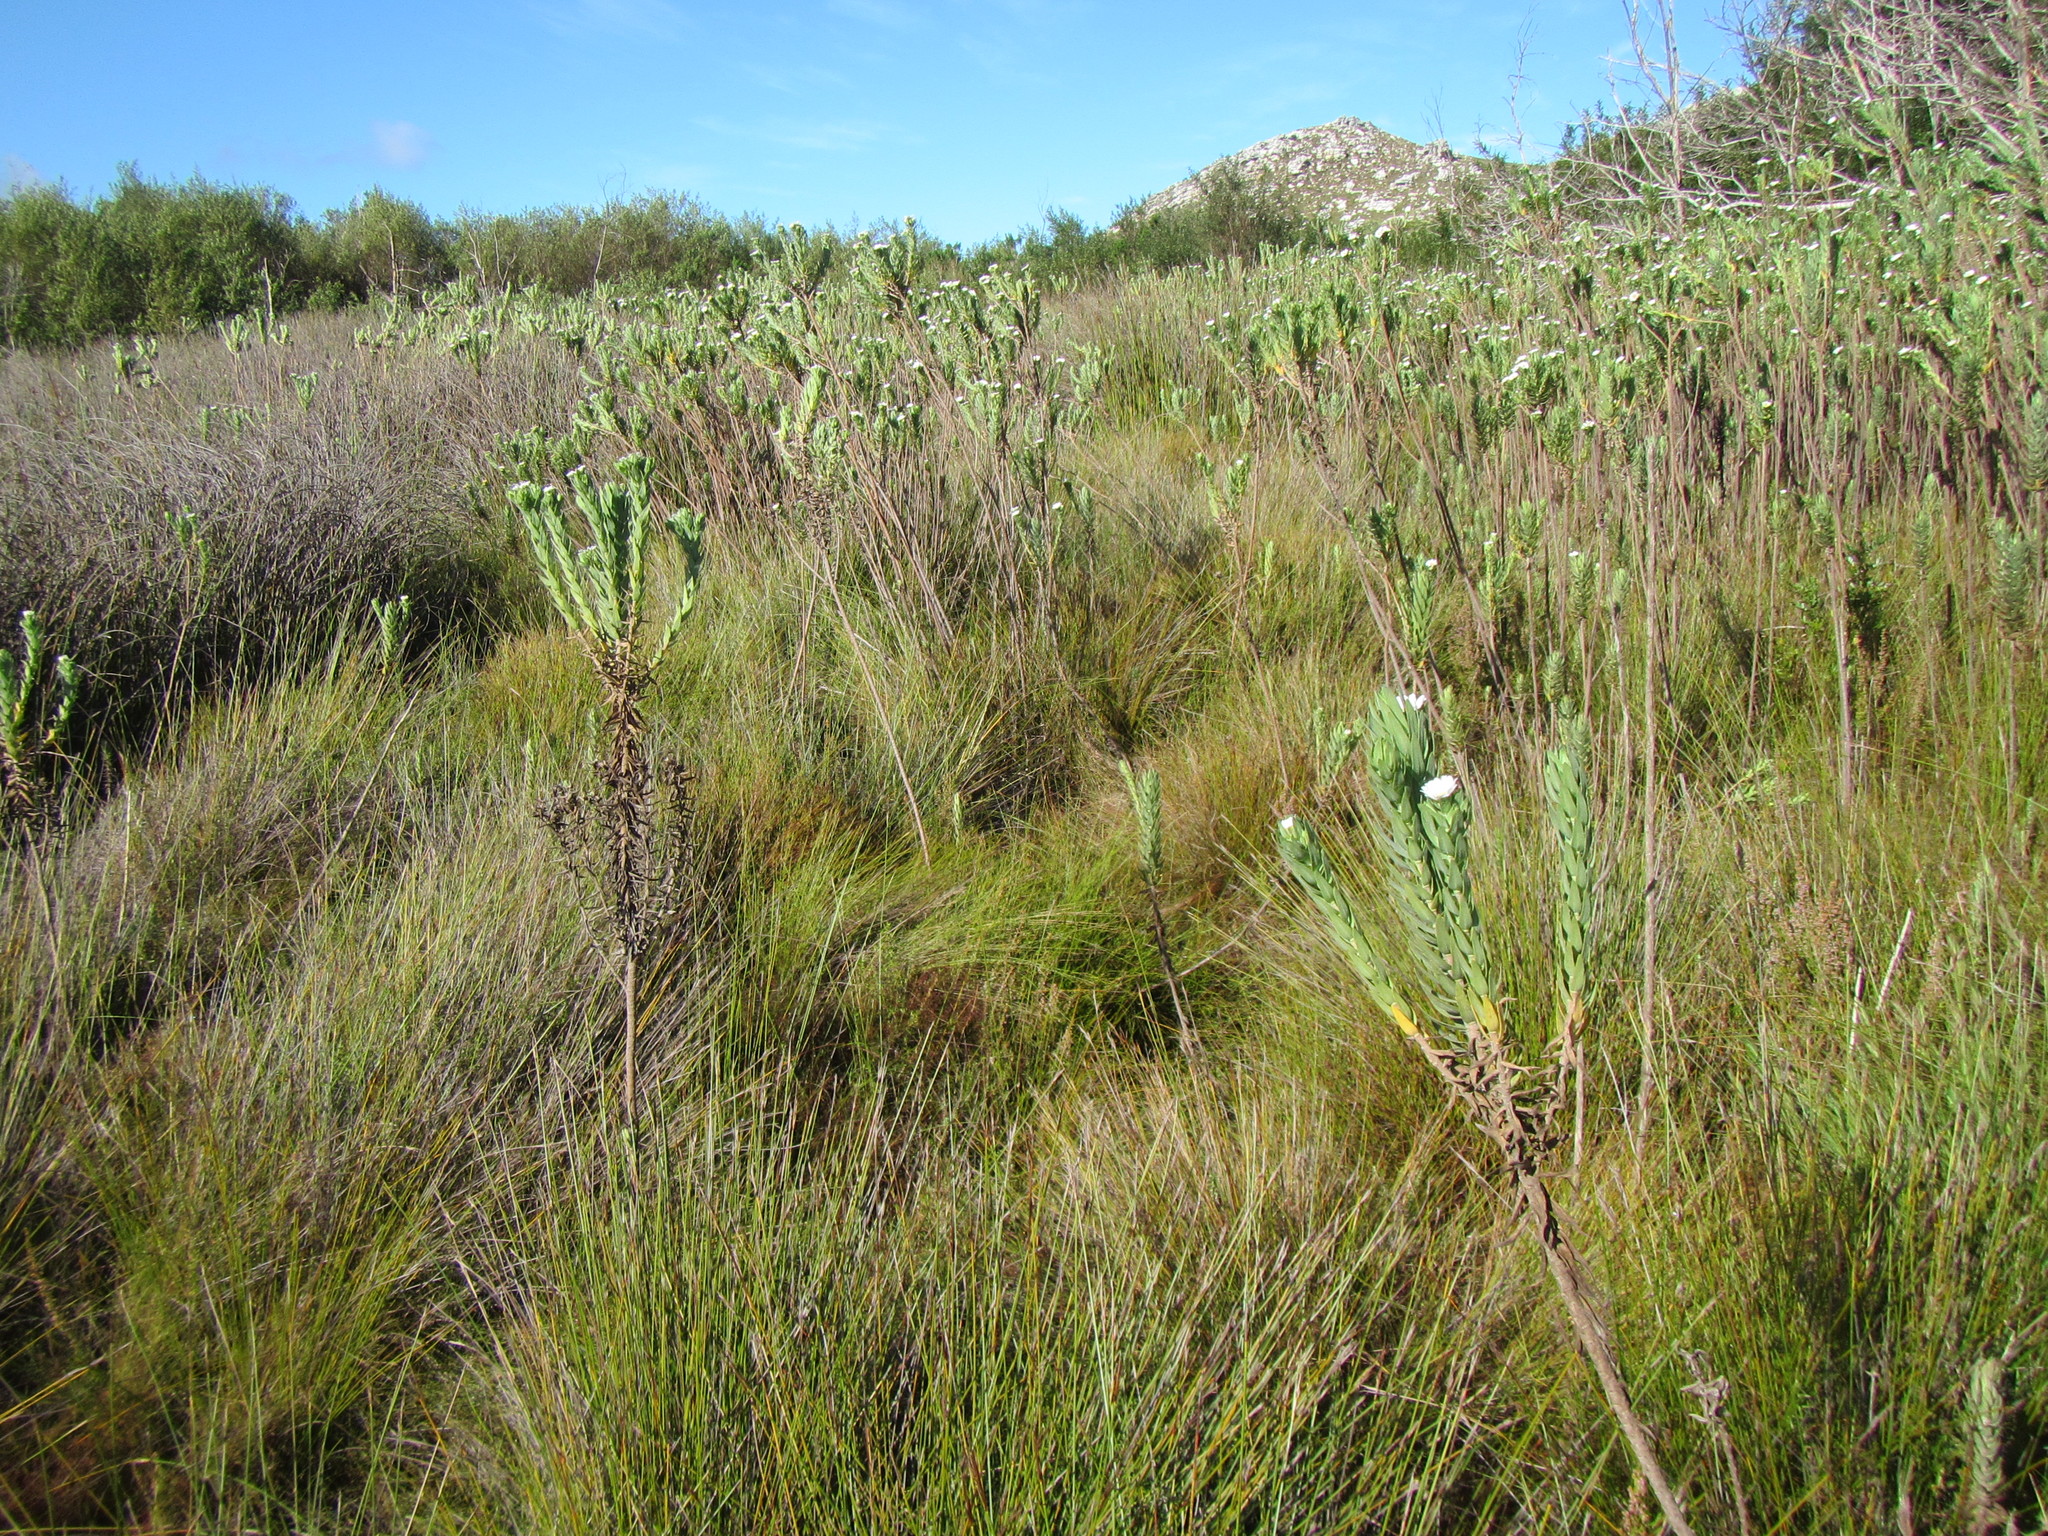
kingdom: Plantae
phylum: Tracheophyta
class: Liliopsida
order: Poales
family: Restionaceae
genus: Anthochortus
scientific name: Anthochortus laxiflorus
